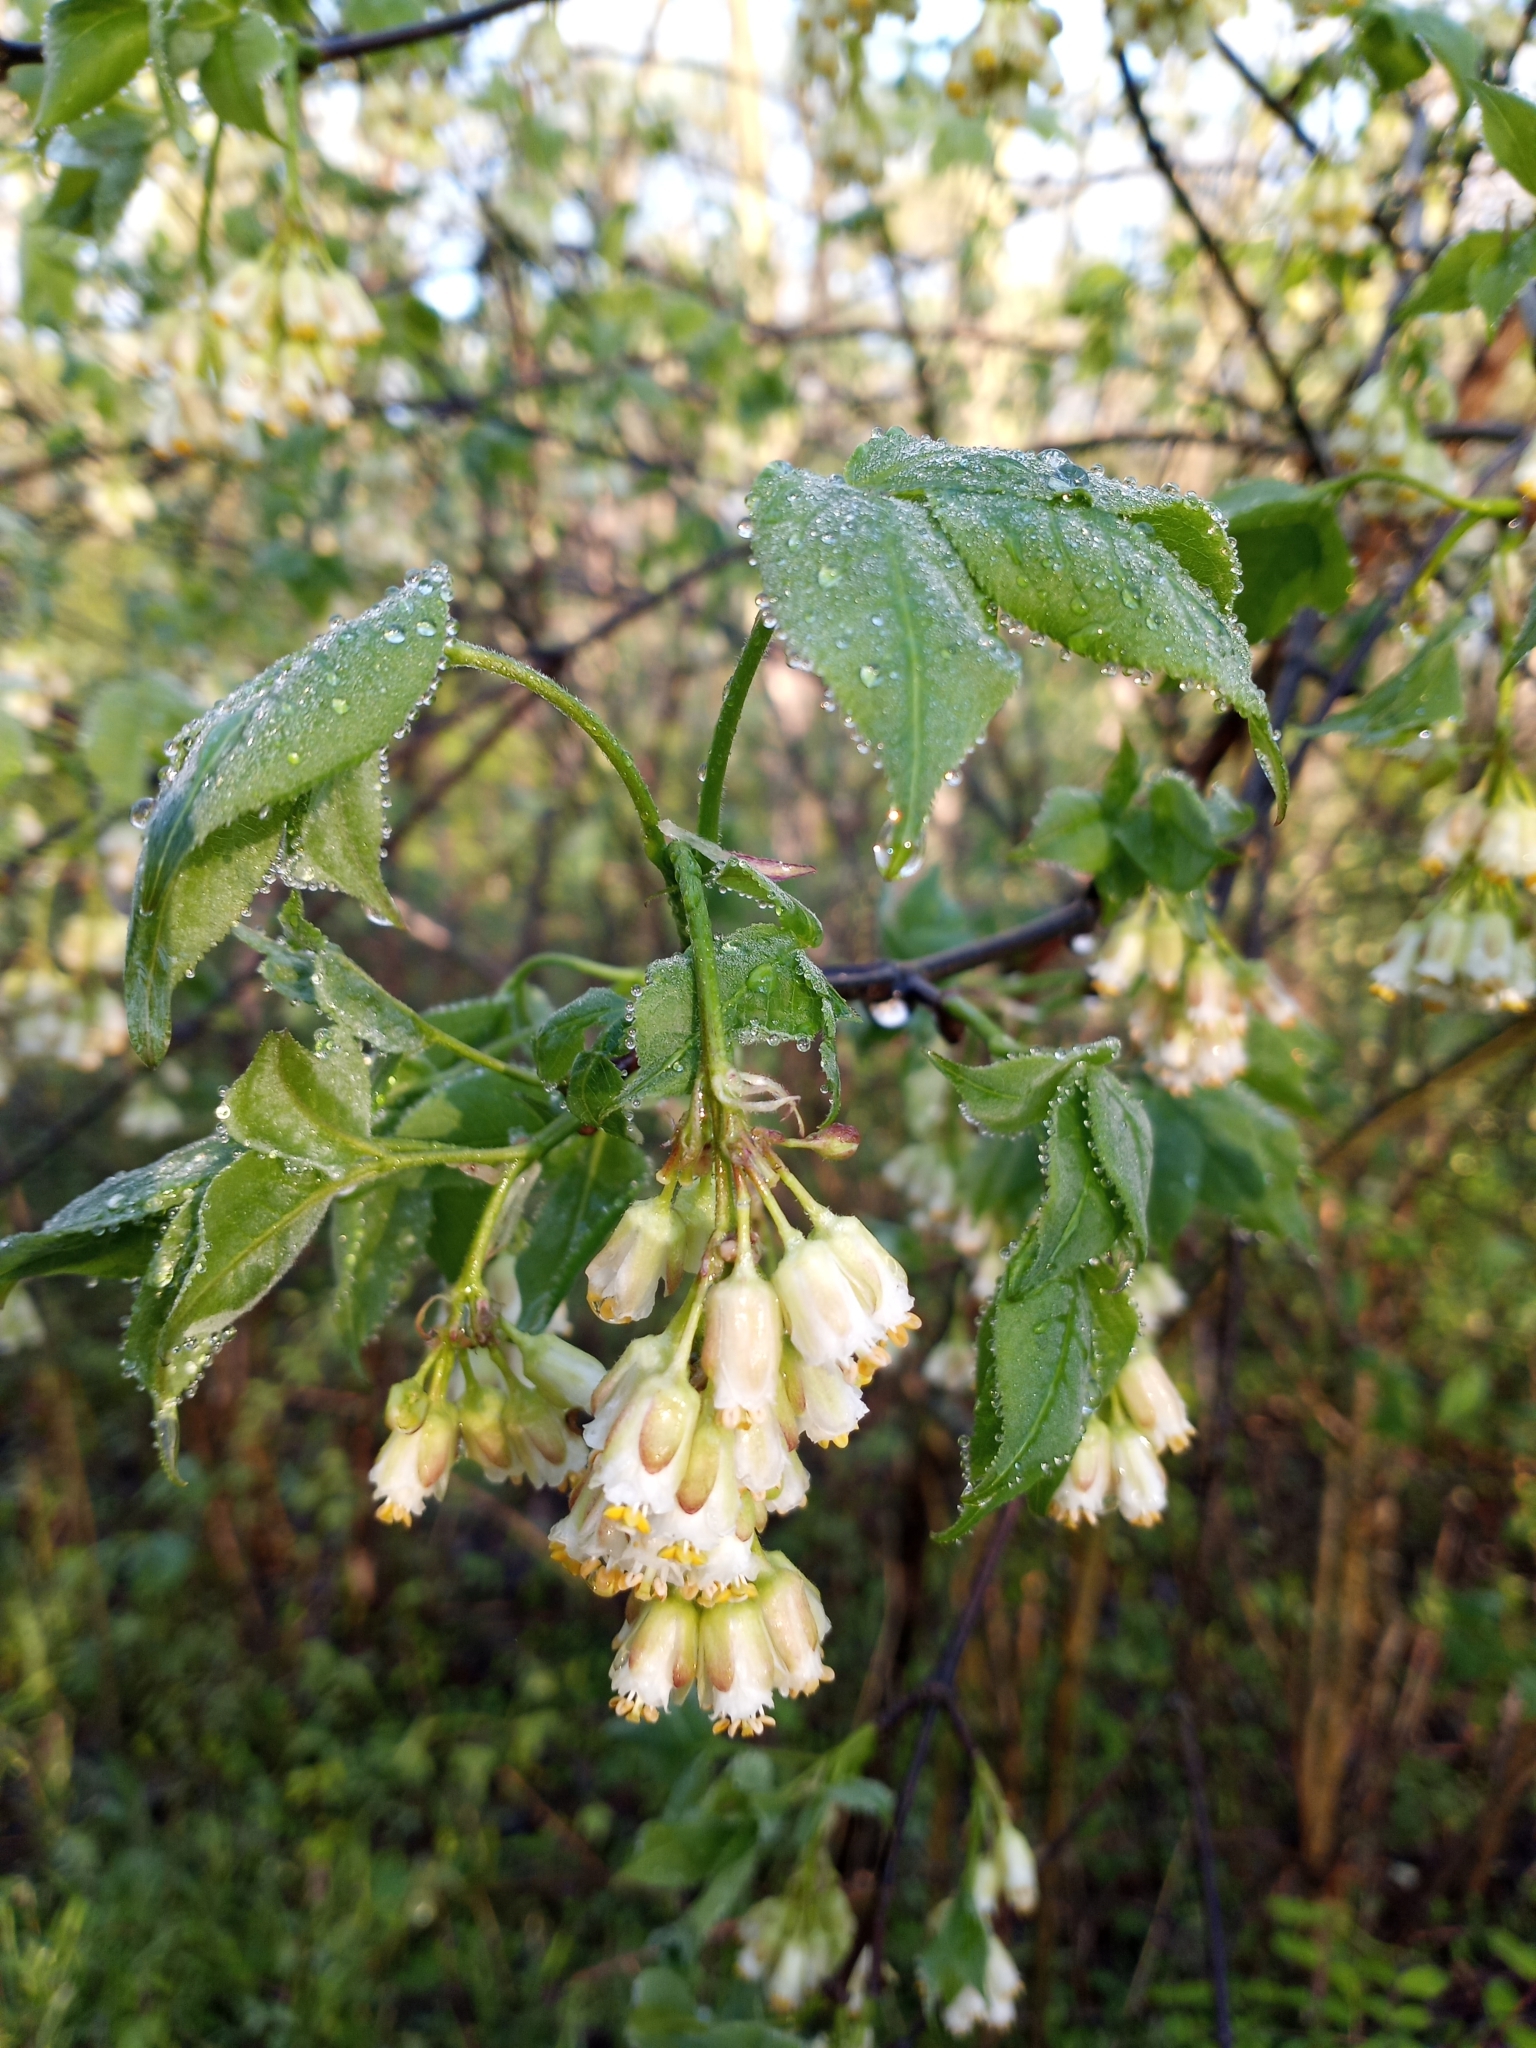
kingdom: Plantae
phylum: Tracheophyta
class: Magnoliopsida
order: Crossosomatales
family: Staphyleaceae
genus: Staphylea
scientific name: Staphylea trifolia
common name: American bladdernut
